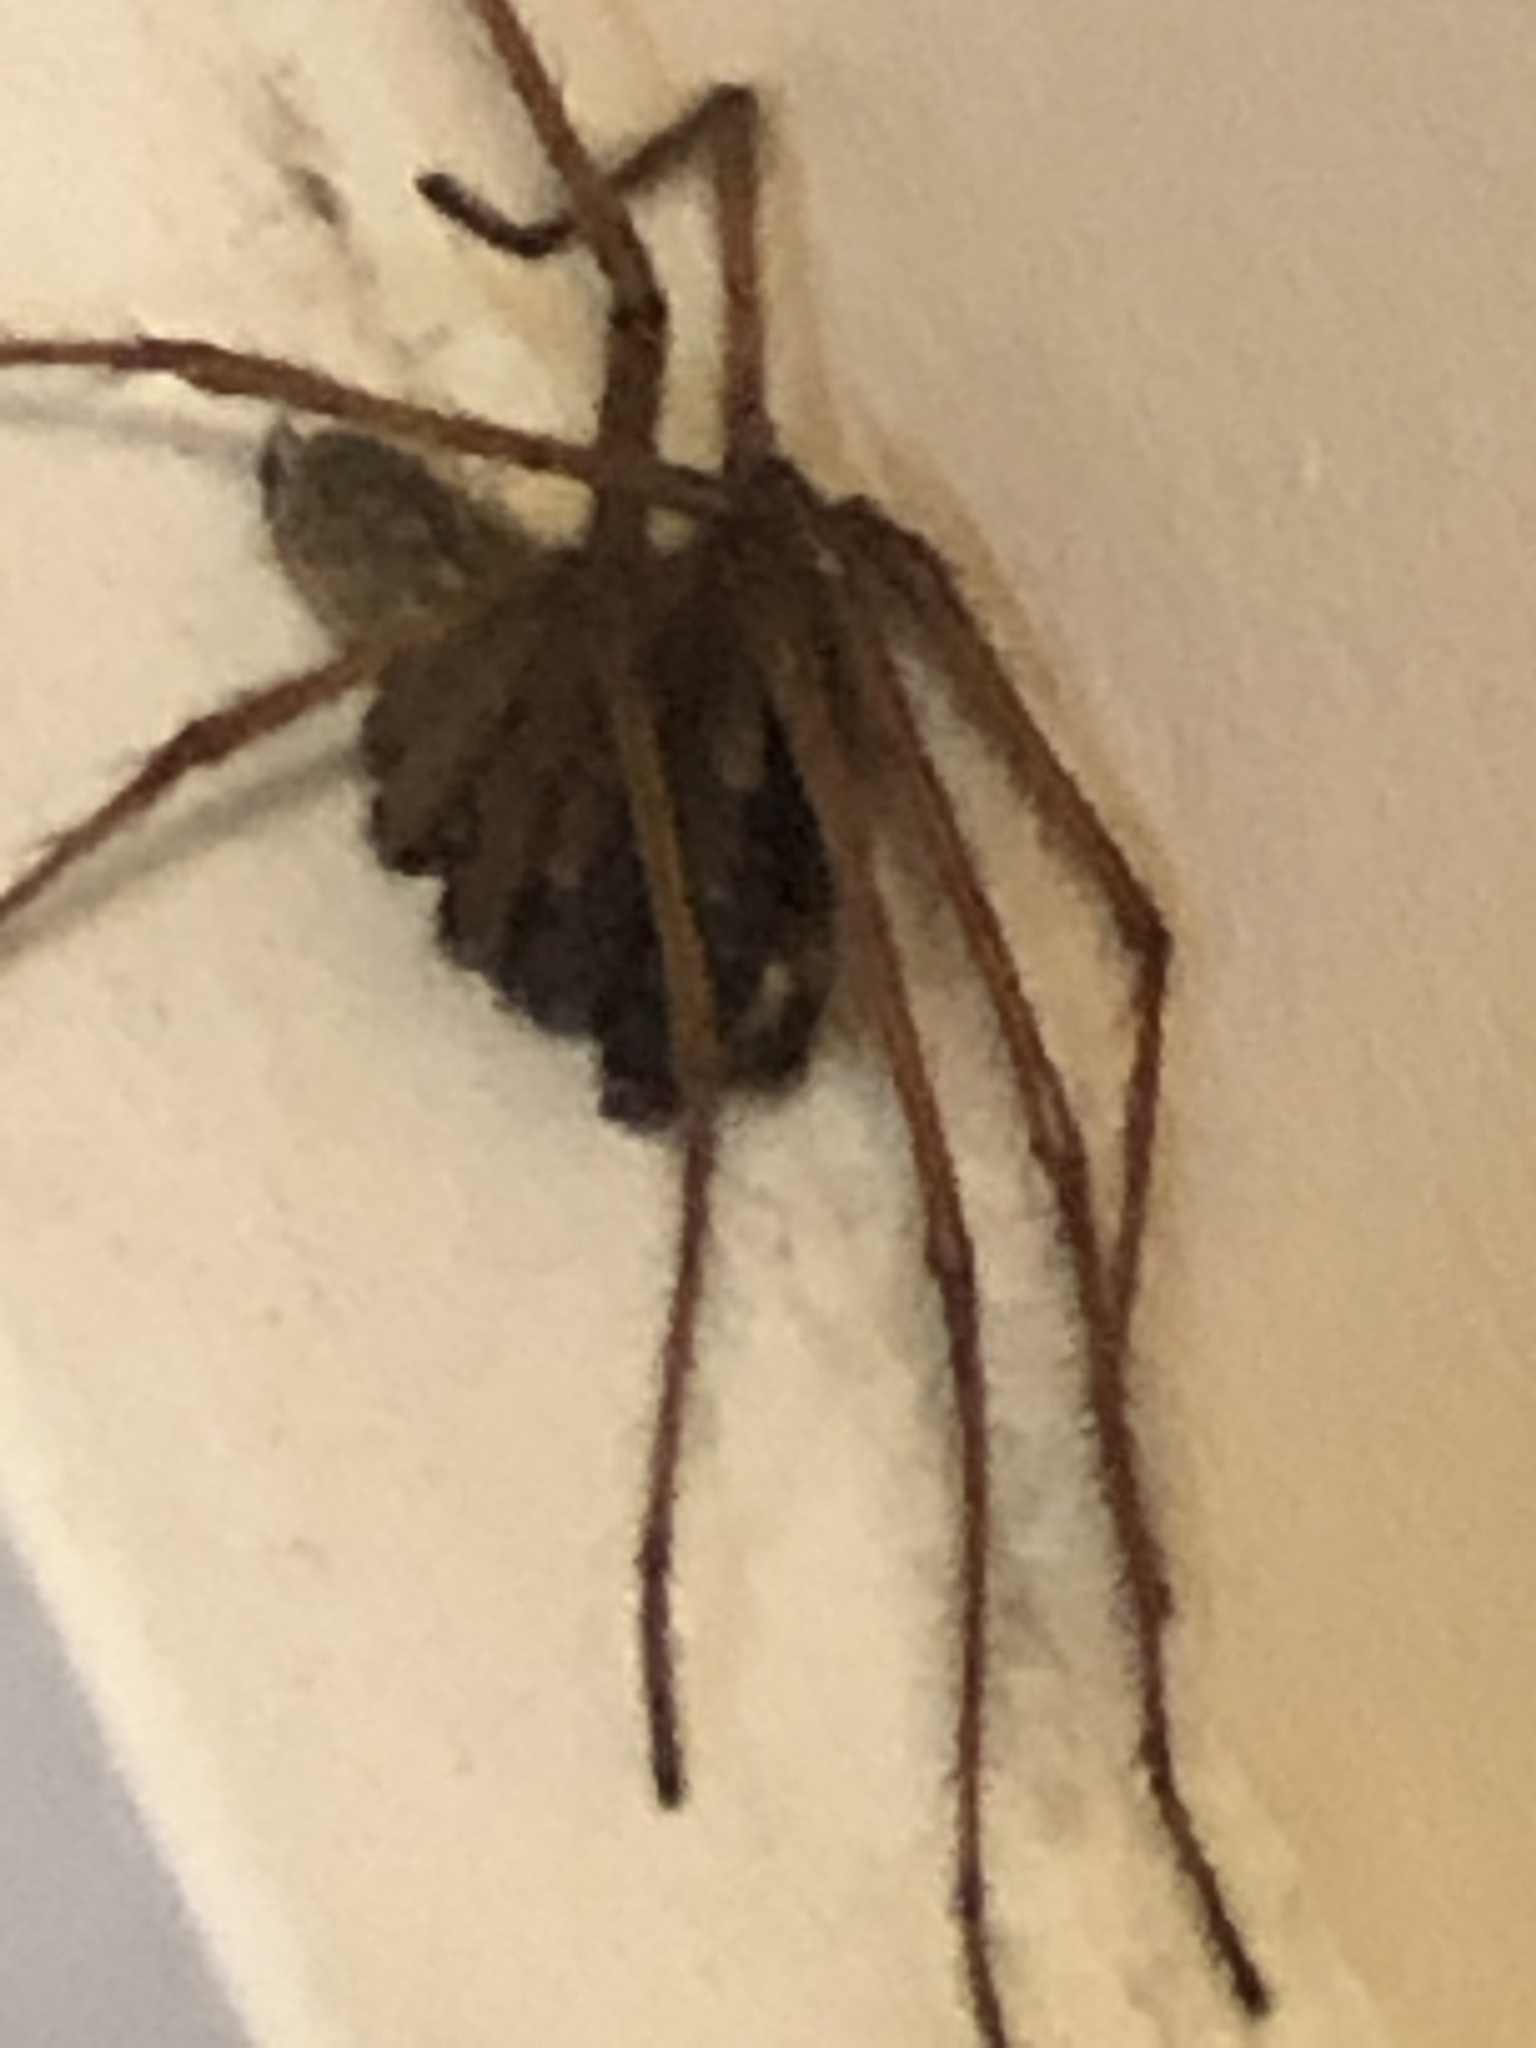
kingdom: Animalia
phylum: Arthropoda
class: Arachnida
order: Araneae
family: Agelenidae
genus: Eratigena
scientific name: Eratigena atrica
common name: Giant house spider
